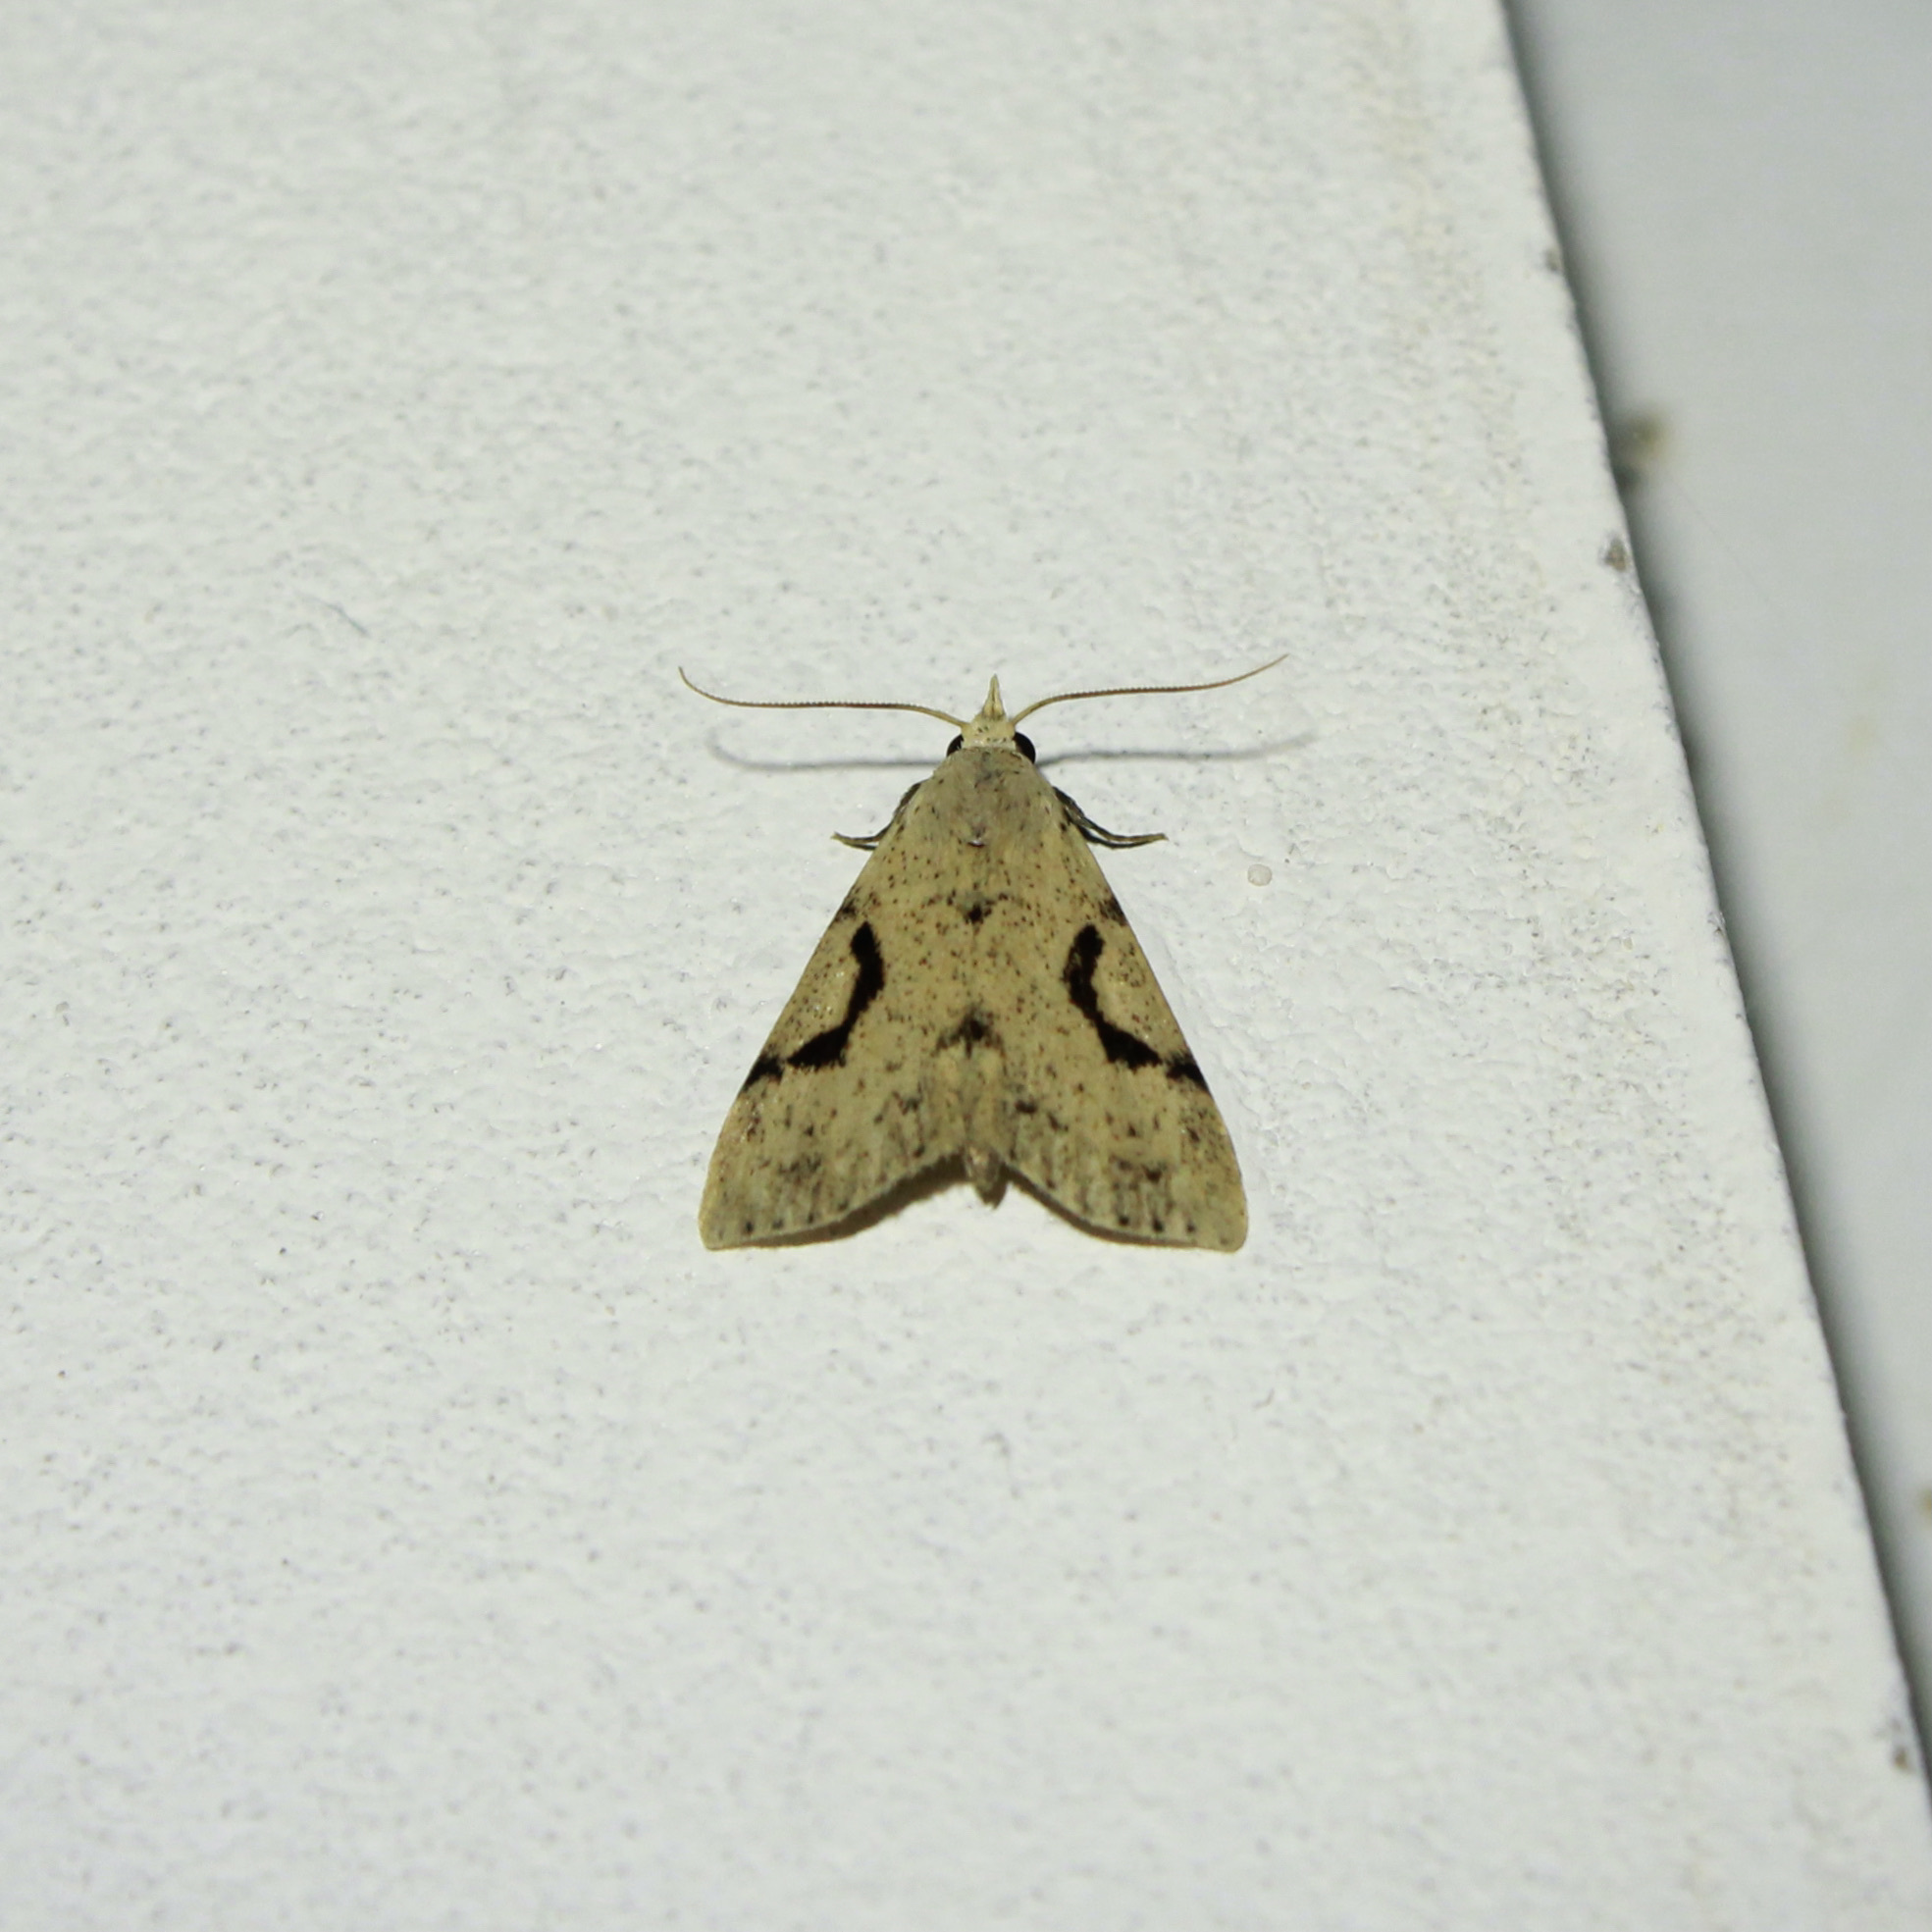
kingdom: Animalia
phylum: Arthropoda
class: Insecta
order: Lepidoptera
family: Erebidae
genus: Acanthermia
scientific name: Acanthermia concatenalis
